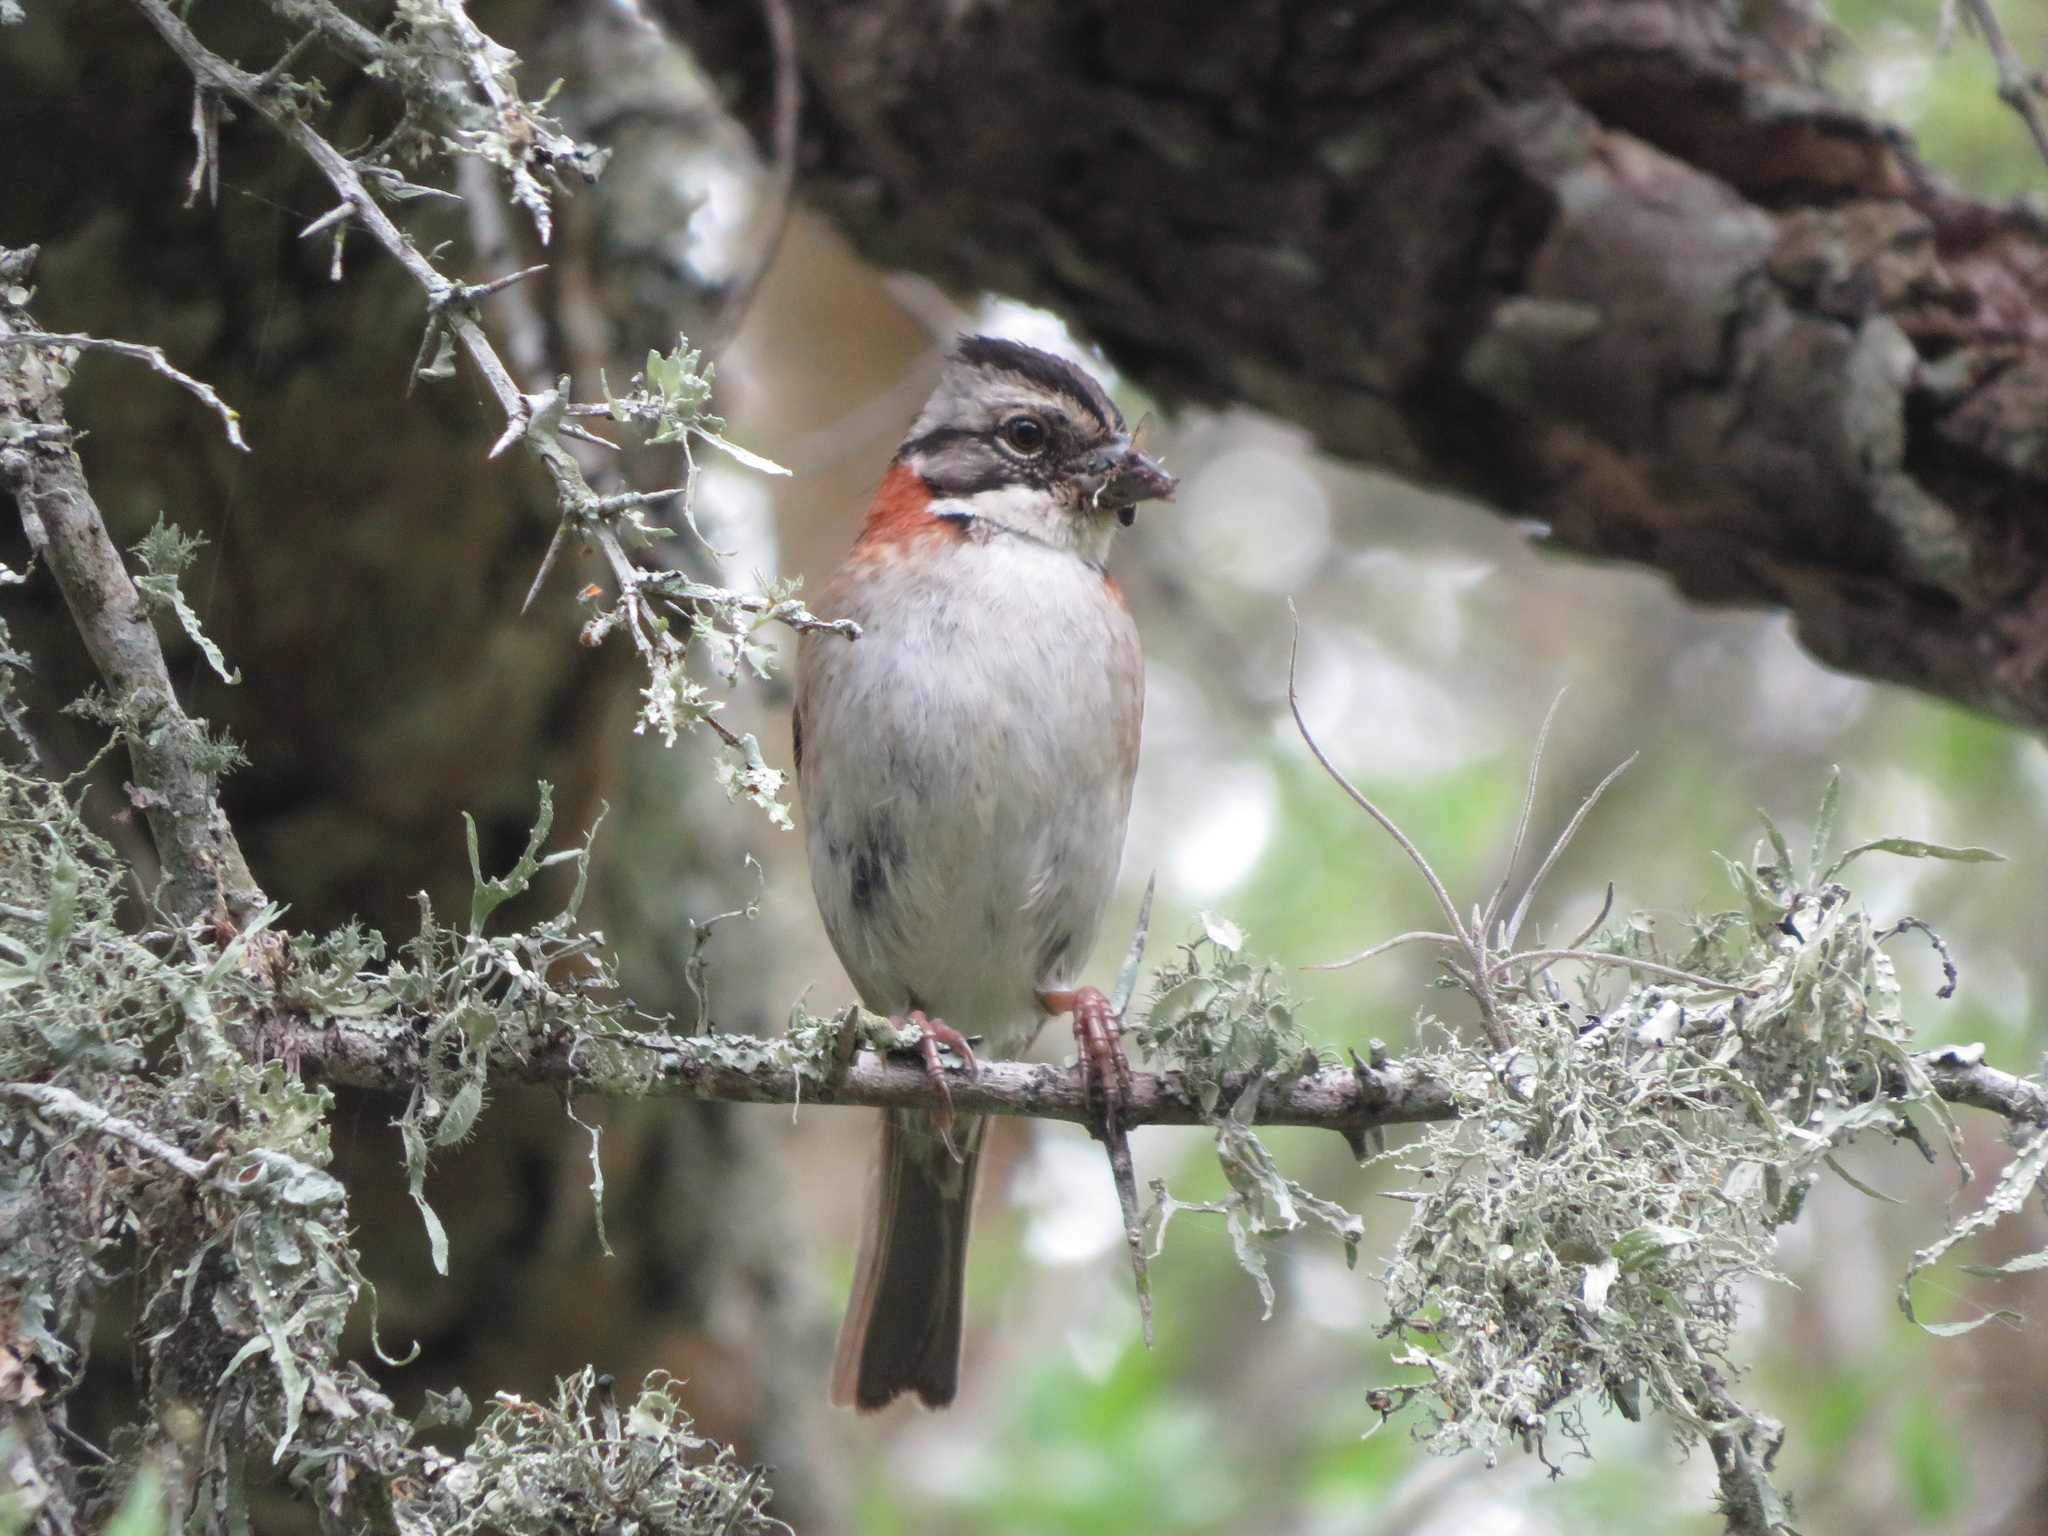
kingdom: Animalia
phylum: Chordata
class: Aves
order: Passeriformes
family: Passerellidae
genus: Zonotrichia
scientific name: Zonotrichia capensis
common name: Rufous-collared sparrow
